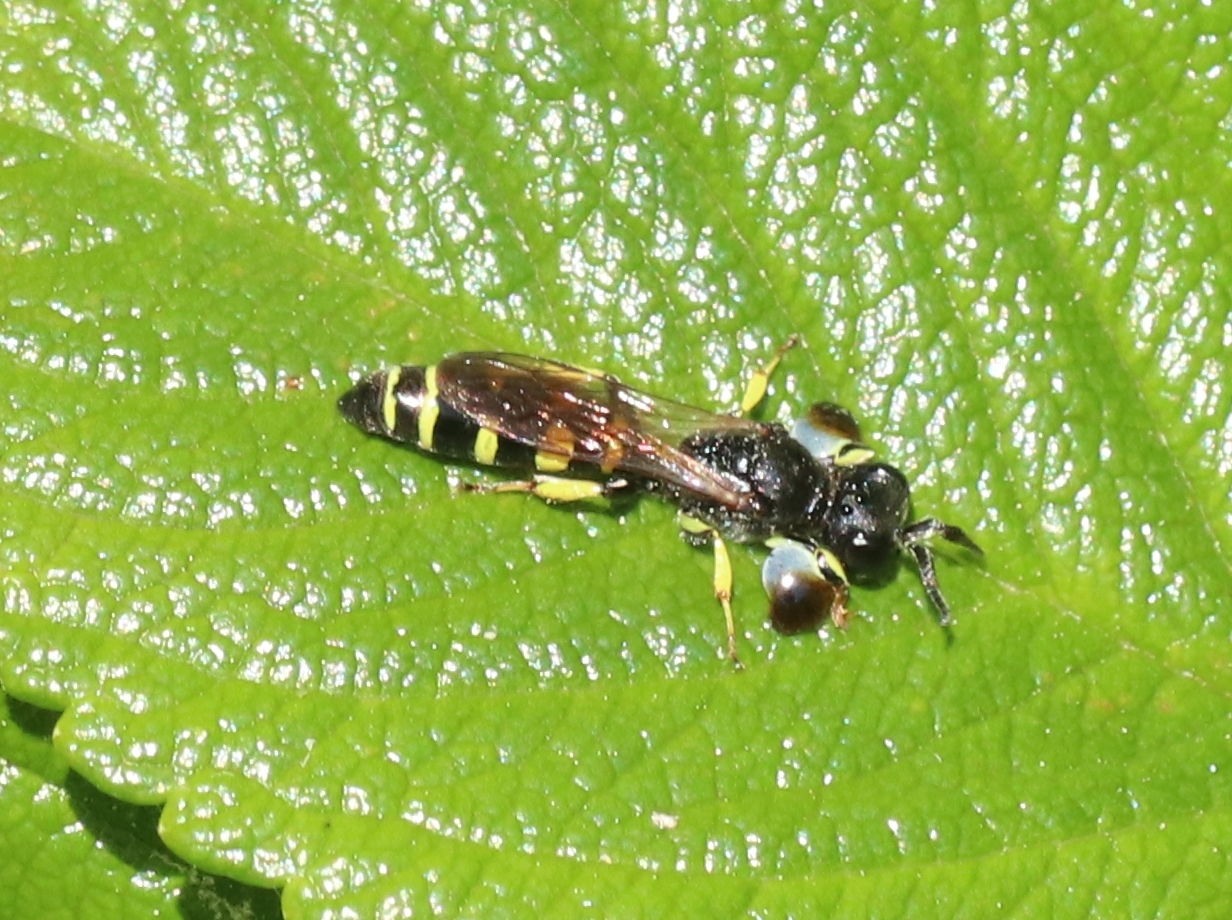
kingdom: Animalia
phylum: Arthropoda
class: Insecta
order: Hymenoptera
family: Crabronidae
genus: Crabro
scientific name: Crabro peltarius
